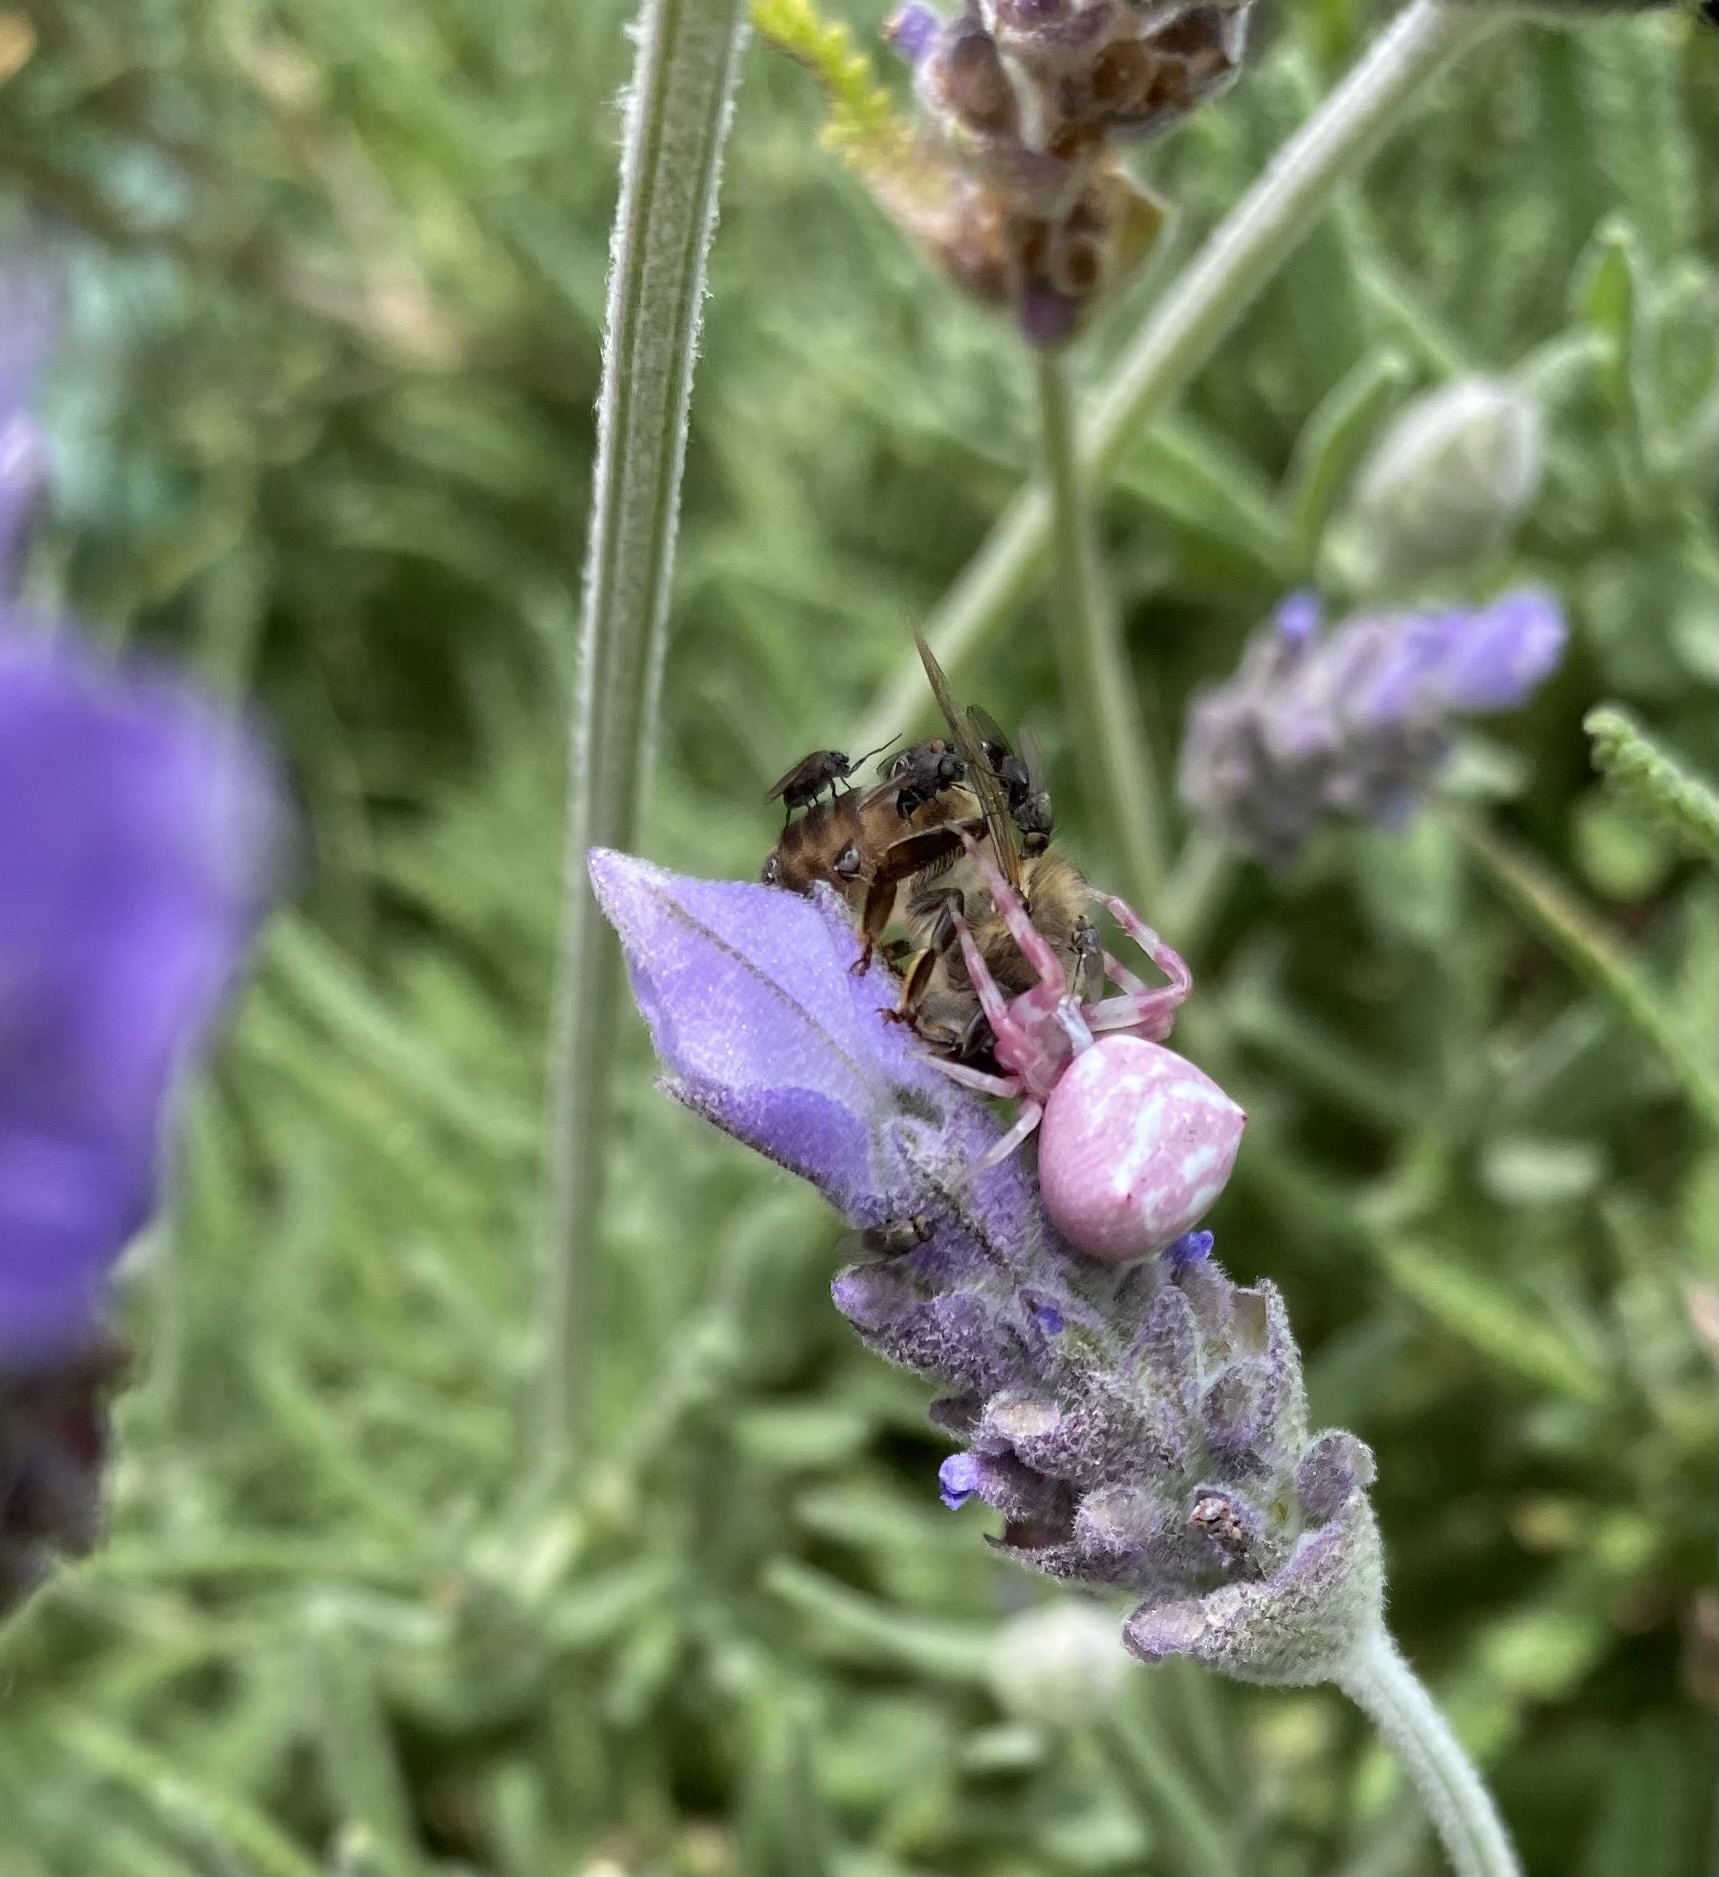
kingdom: Animalia
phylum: Arthropoda
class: Arachnida
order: Araneae
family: Thomisidae
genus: Thomisus
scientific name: Thomisus citrinellus
